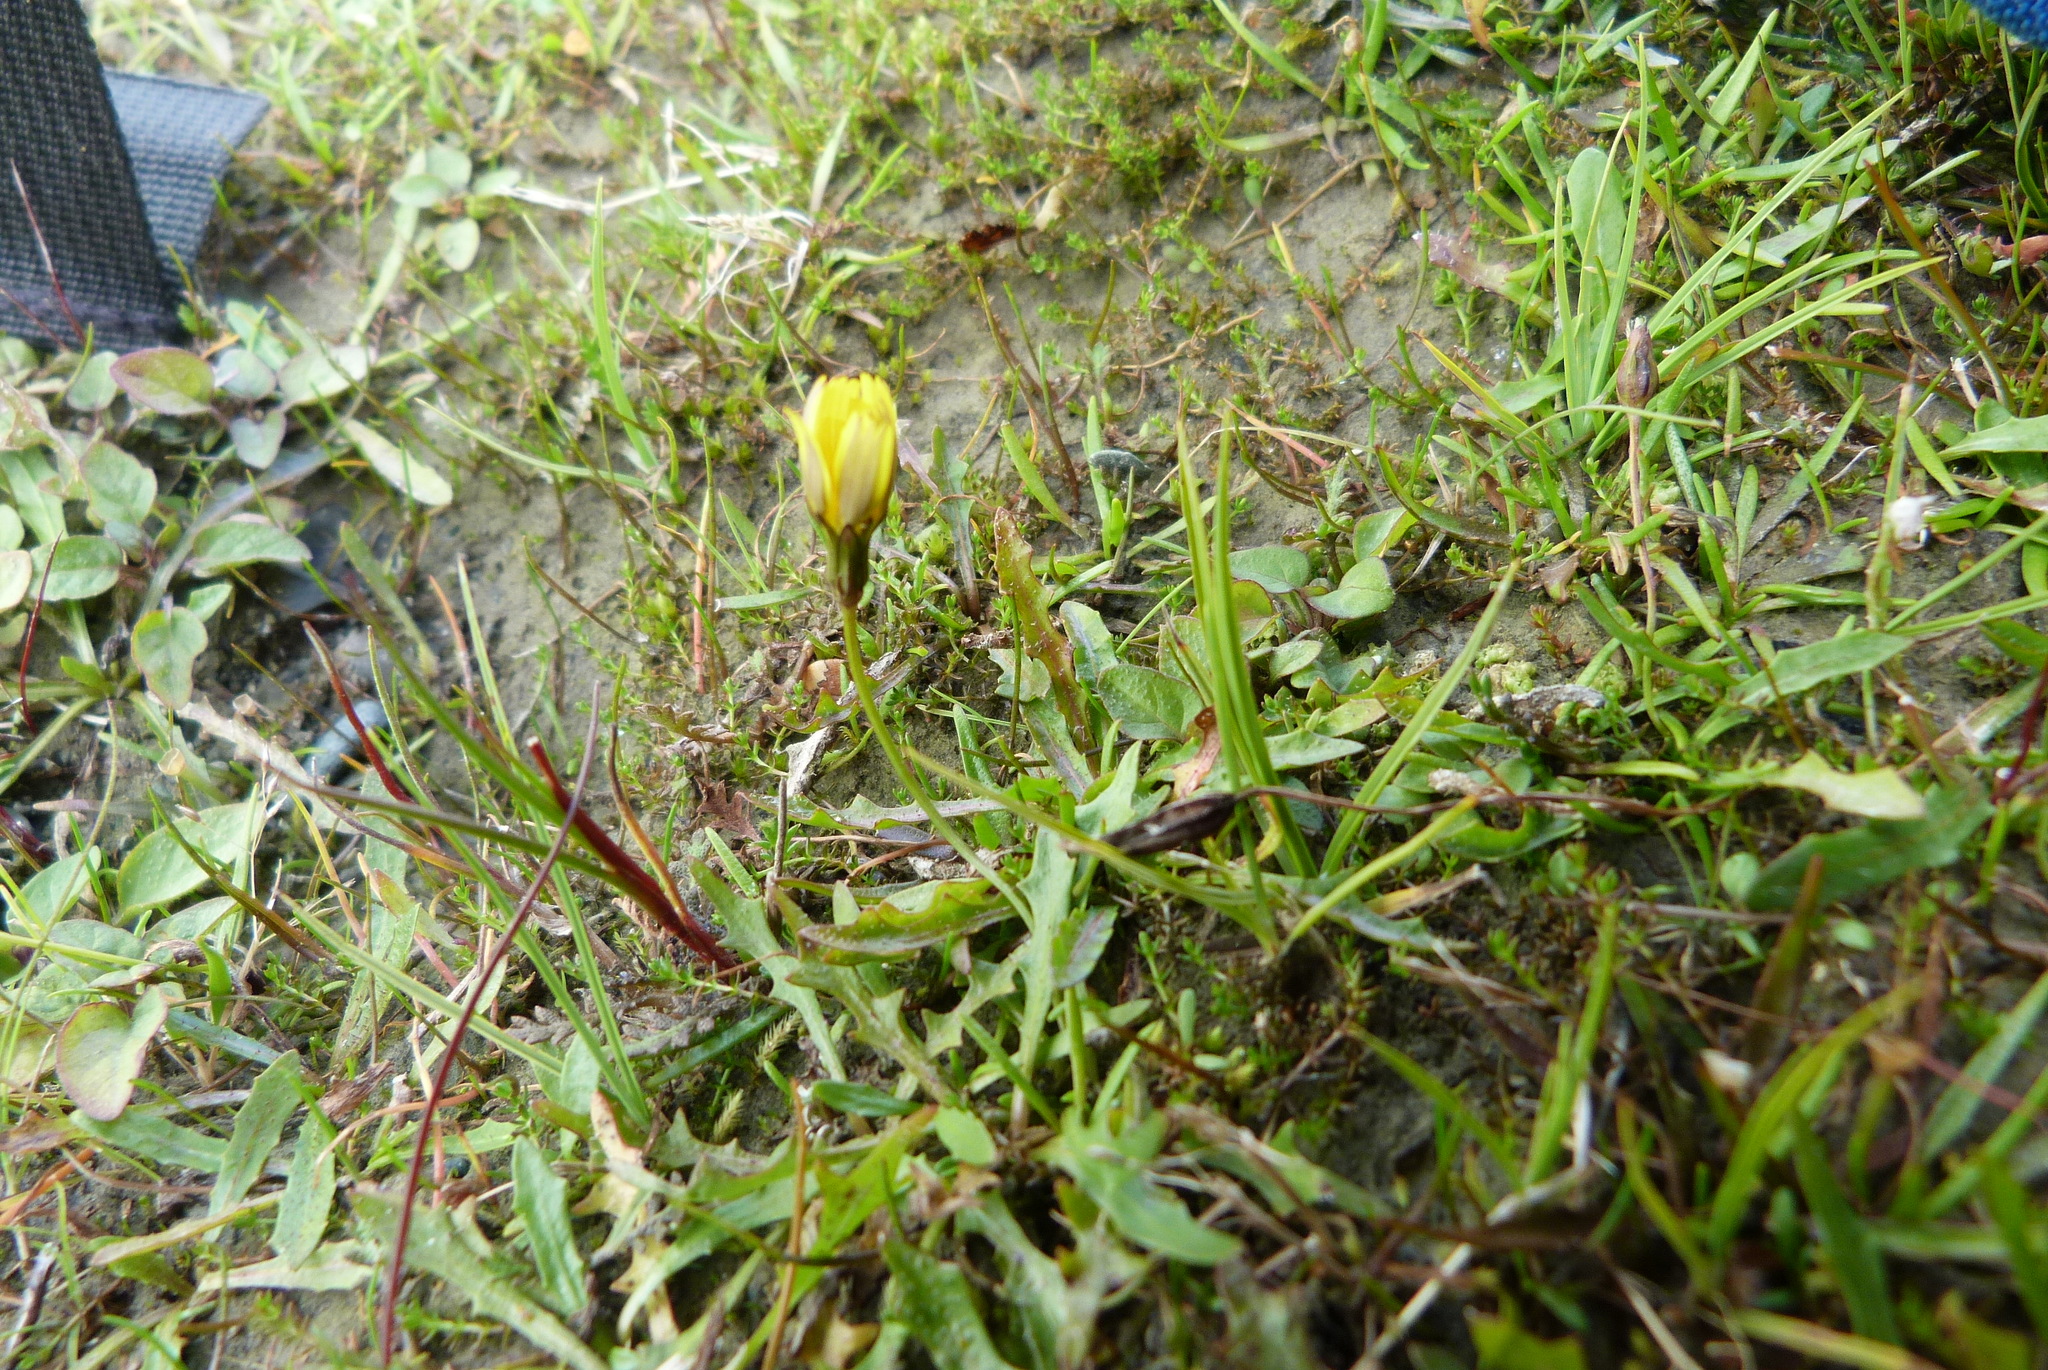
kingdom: Plantae
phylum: Tracheophyta
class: Magnoliopsida
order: Asterales
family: Asteraceae
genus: Thrincia
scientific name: Thrincia saxatilis
